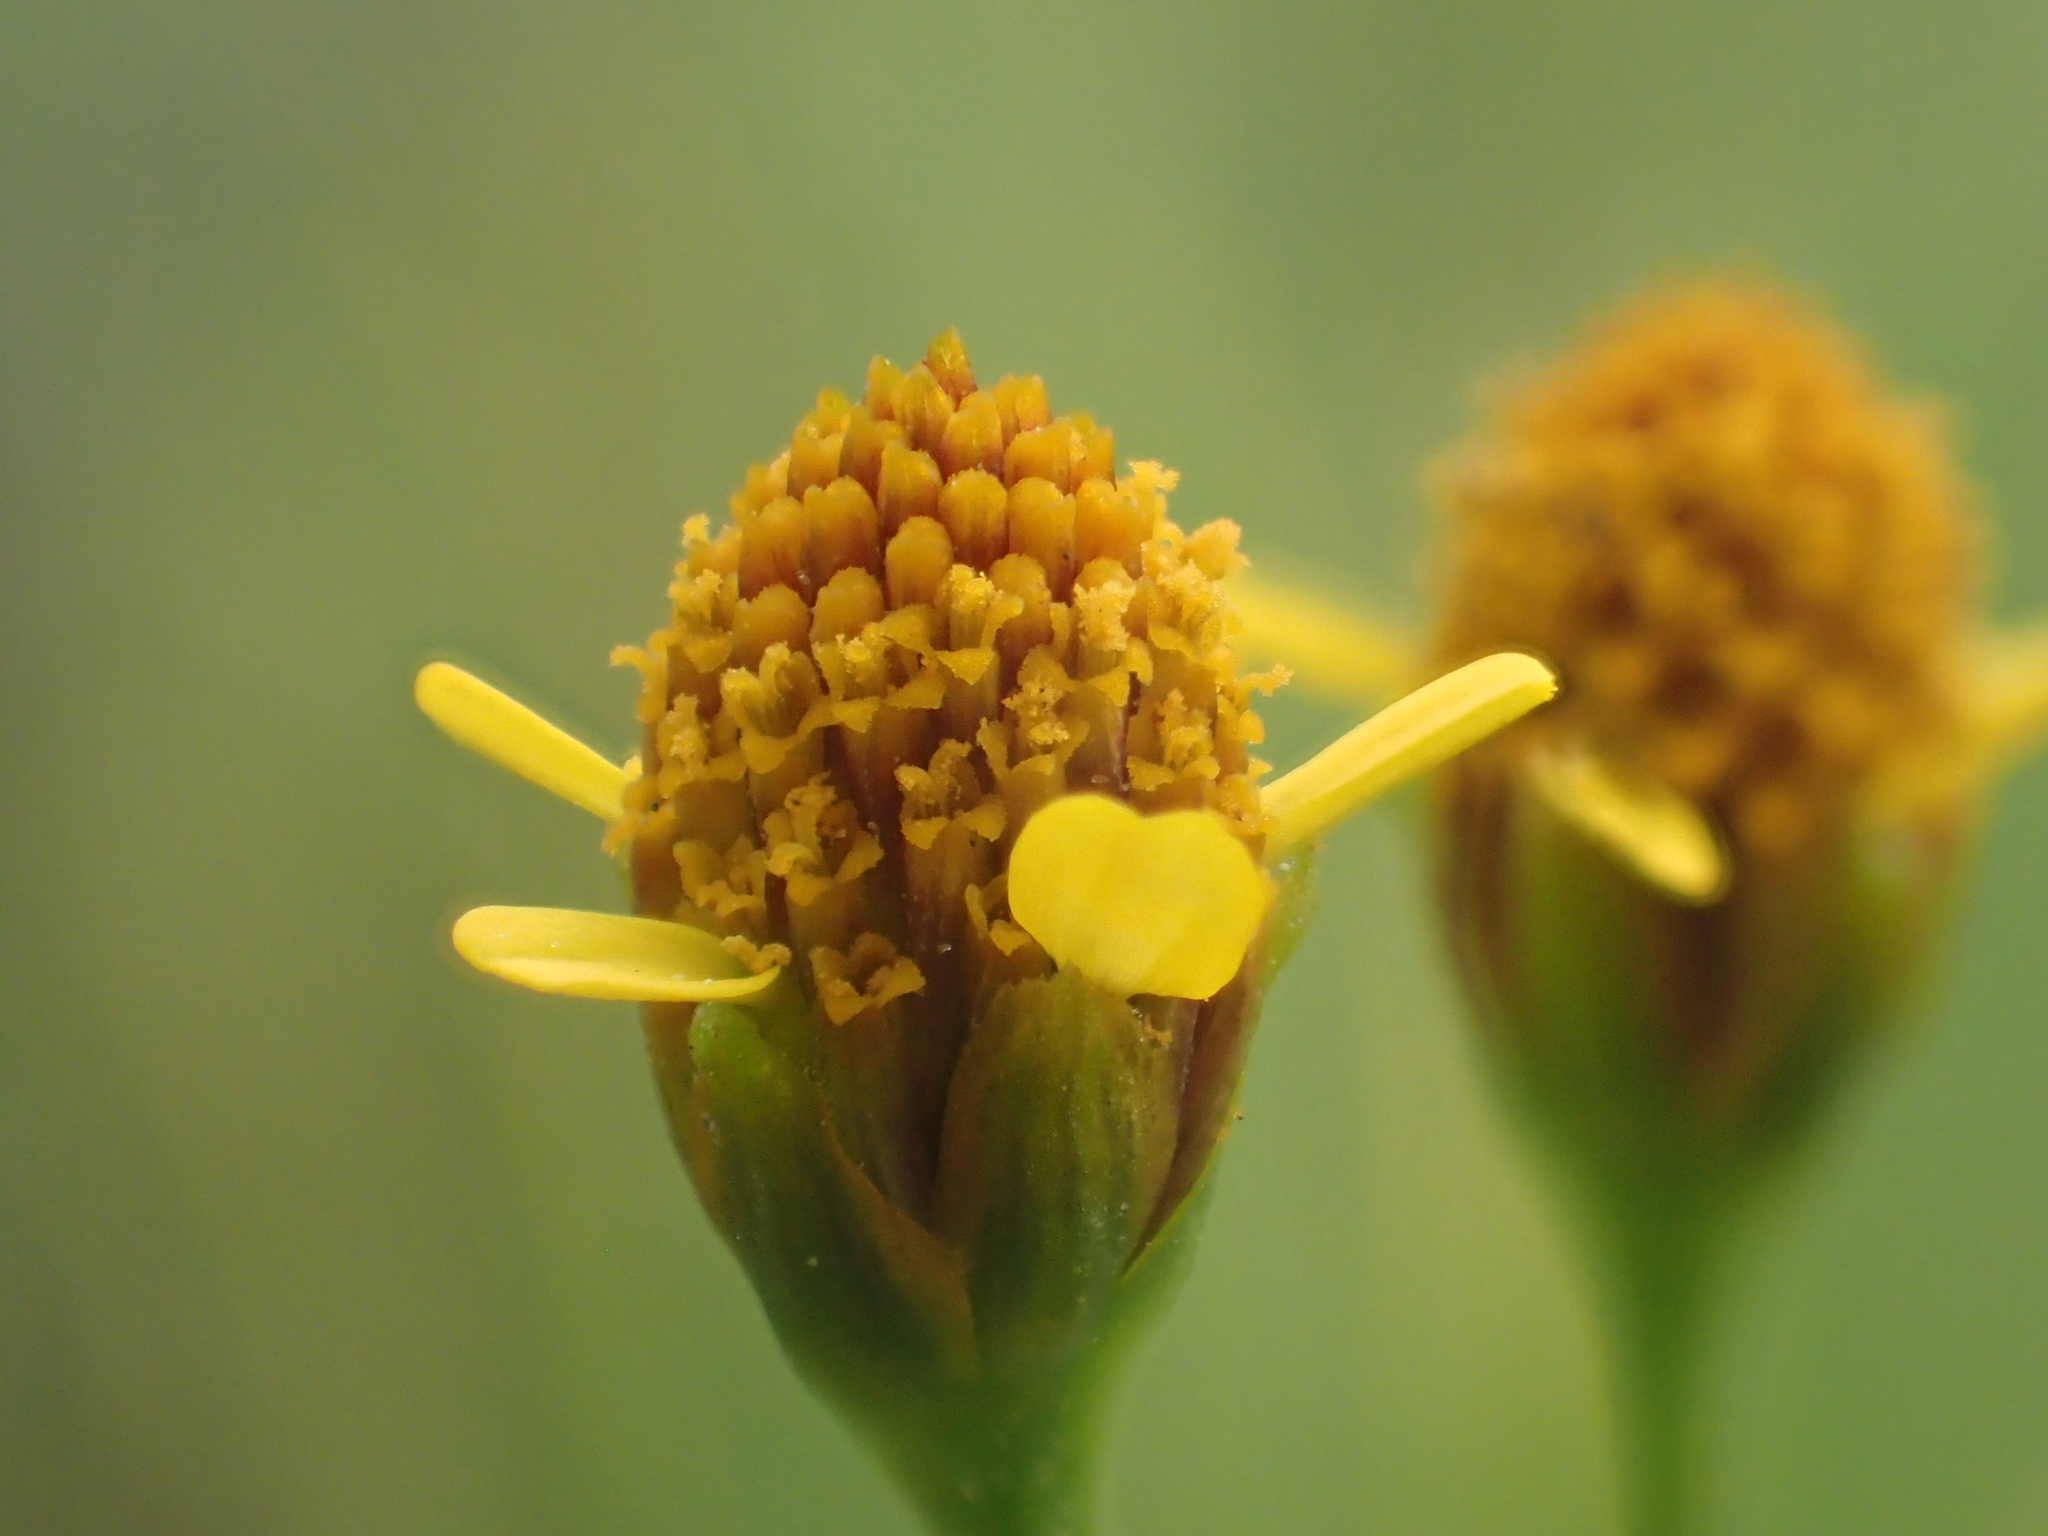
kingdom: Plantae
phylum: Tracheophyta
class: Magnoliopsida
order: Asterales
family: Asteraceae
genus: Acmella
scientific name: Acmella uliginosa
